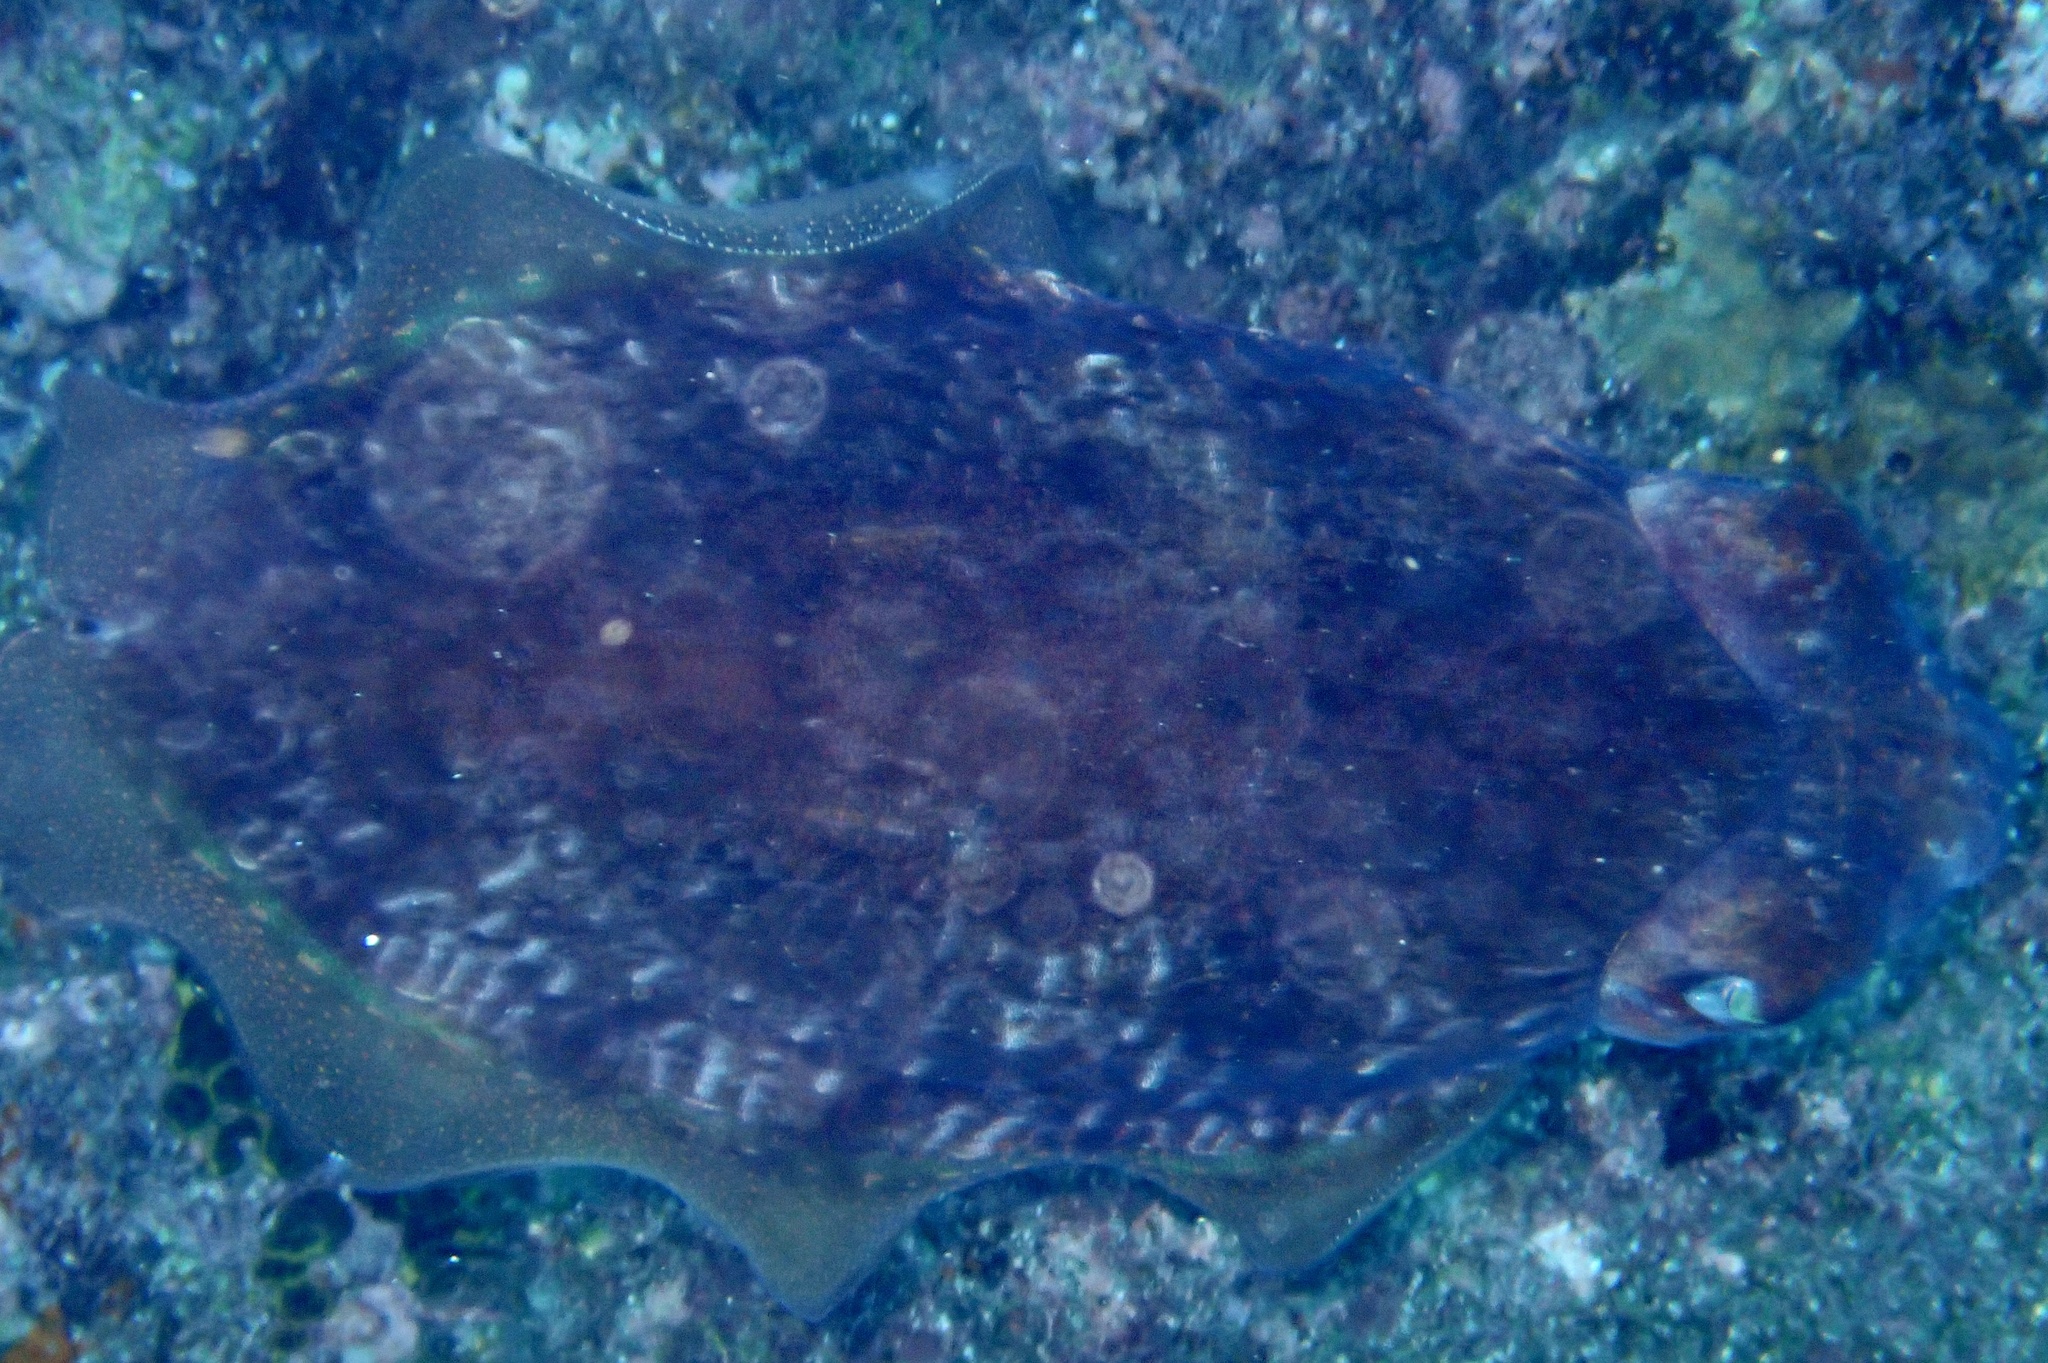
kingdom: Animalia
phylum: Mollusca
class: Cephalopoda
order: Sepiida
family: Sepiidae
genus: Sepia
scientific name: Sepia hierredda
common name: Giant african cuttlefish
